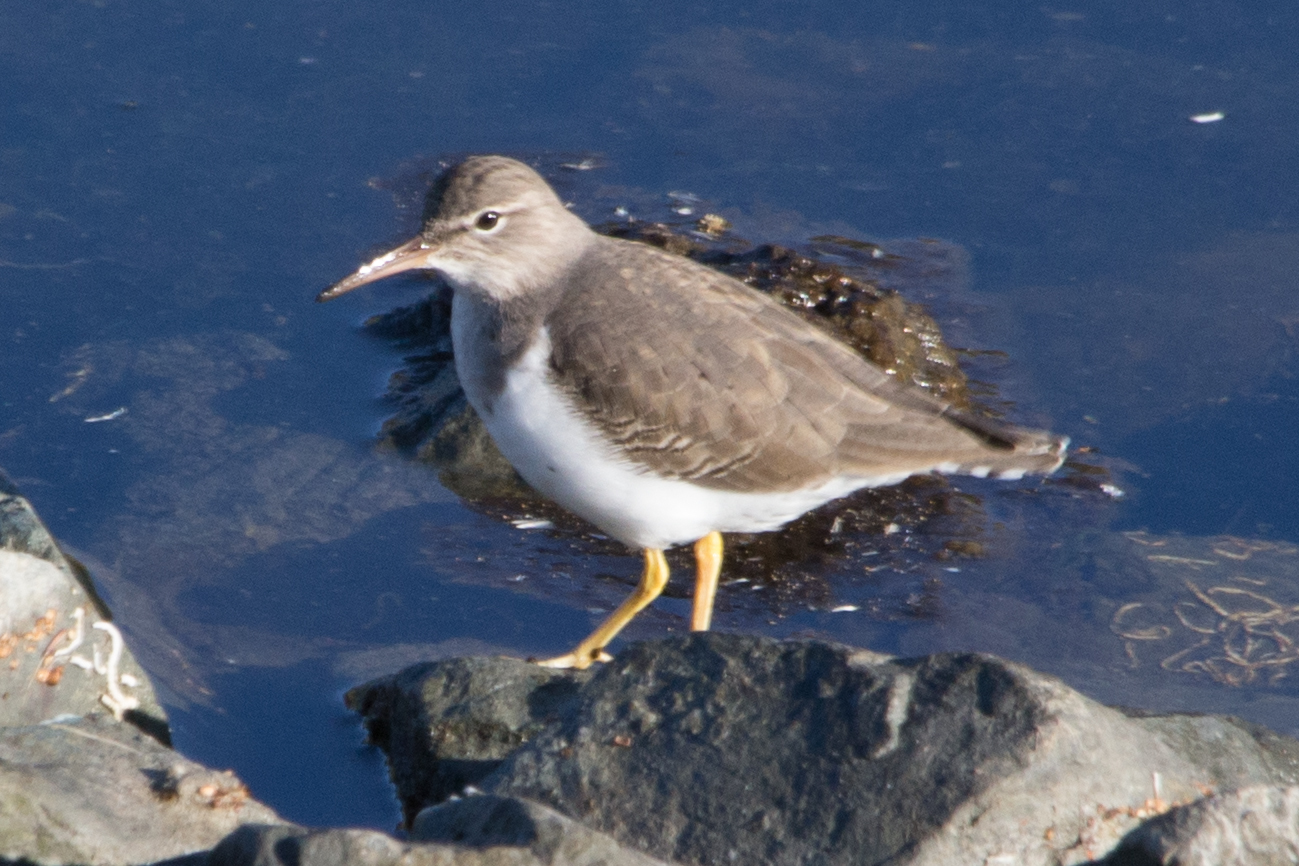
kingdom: Animalia
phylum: Chordata
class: Aves
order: Charadriiformes
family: Scolopacidae
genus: Actitis
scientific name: Actitis macularius
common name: Spotted sandpiper
